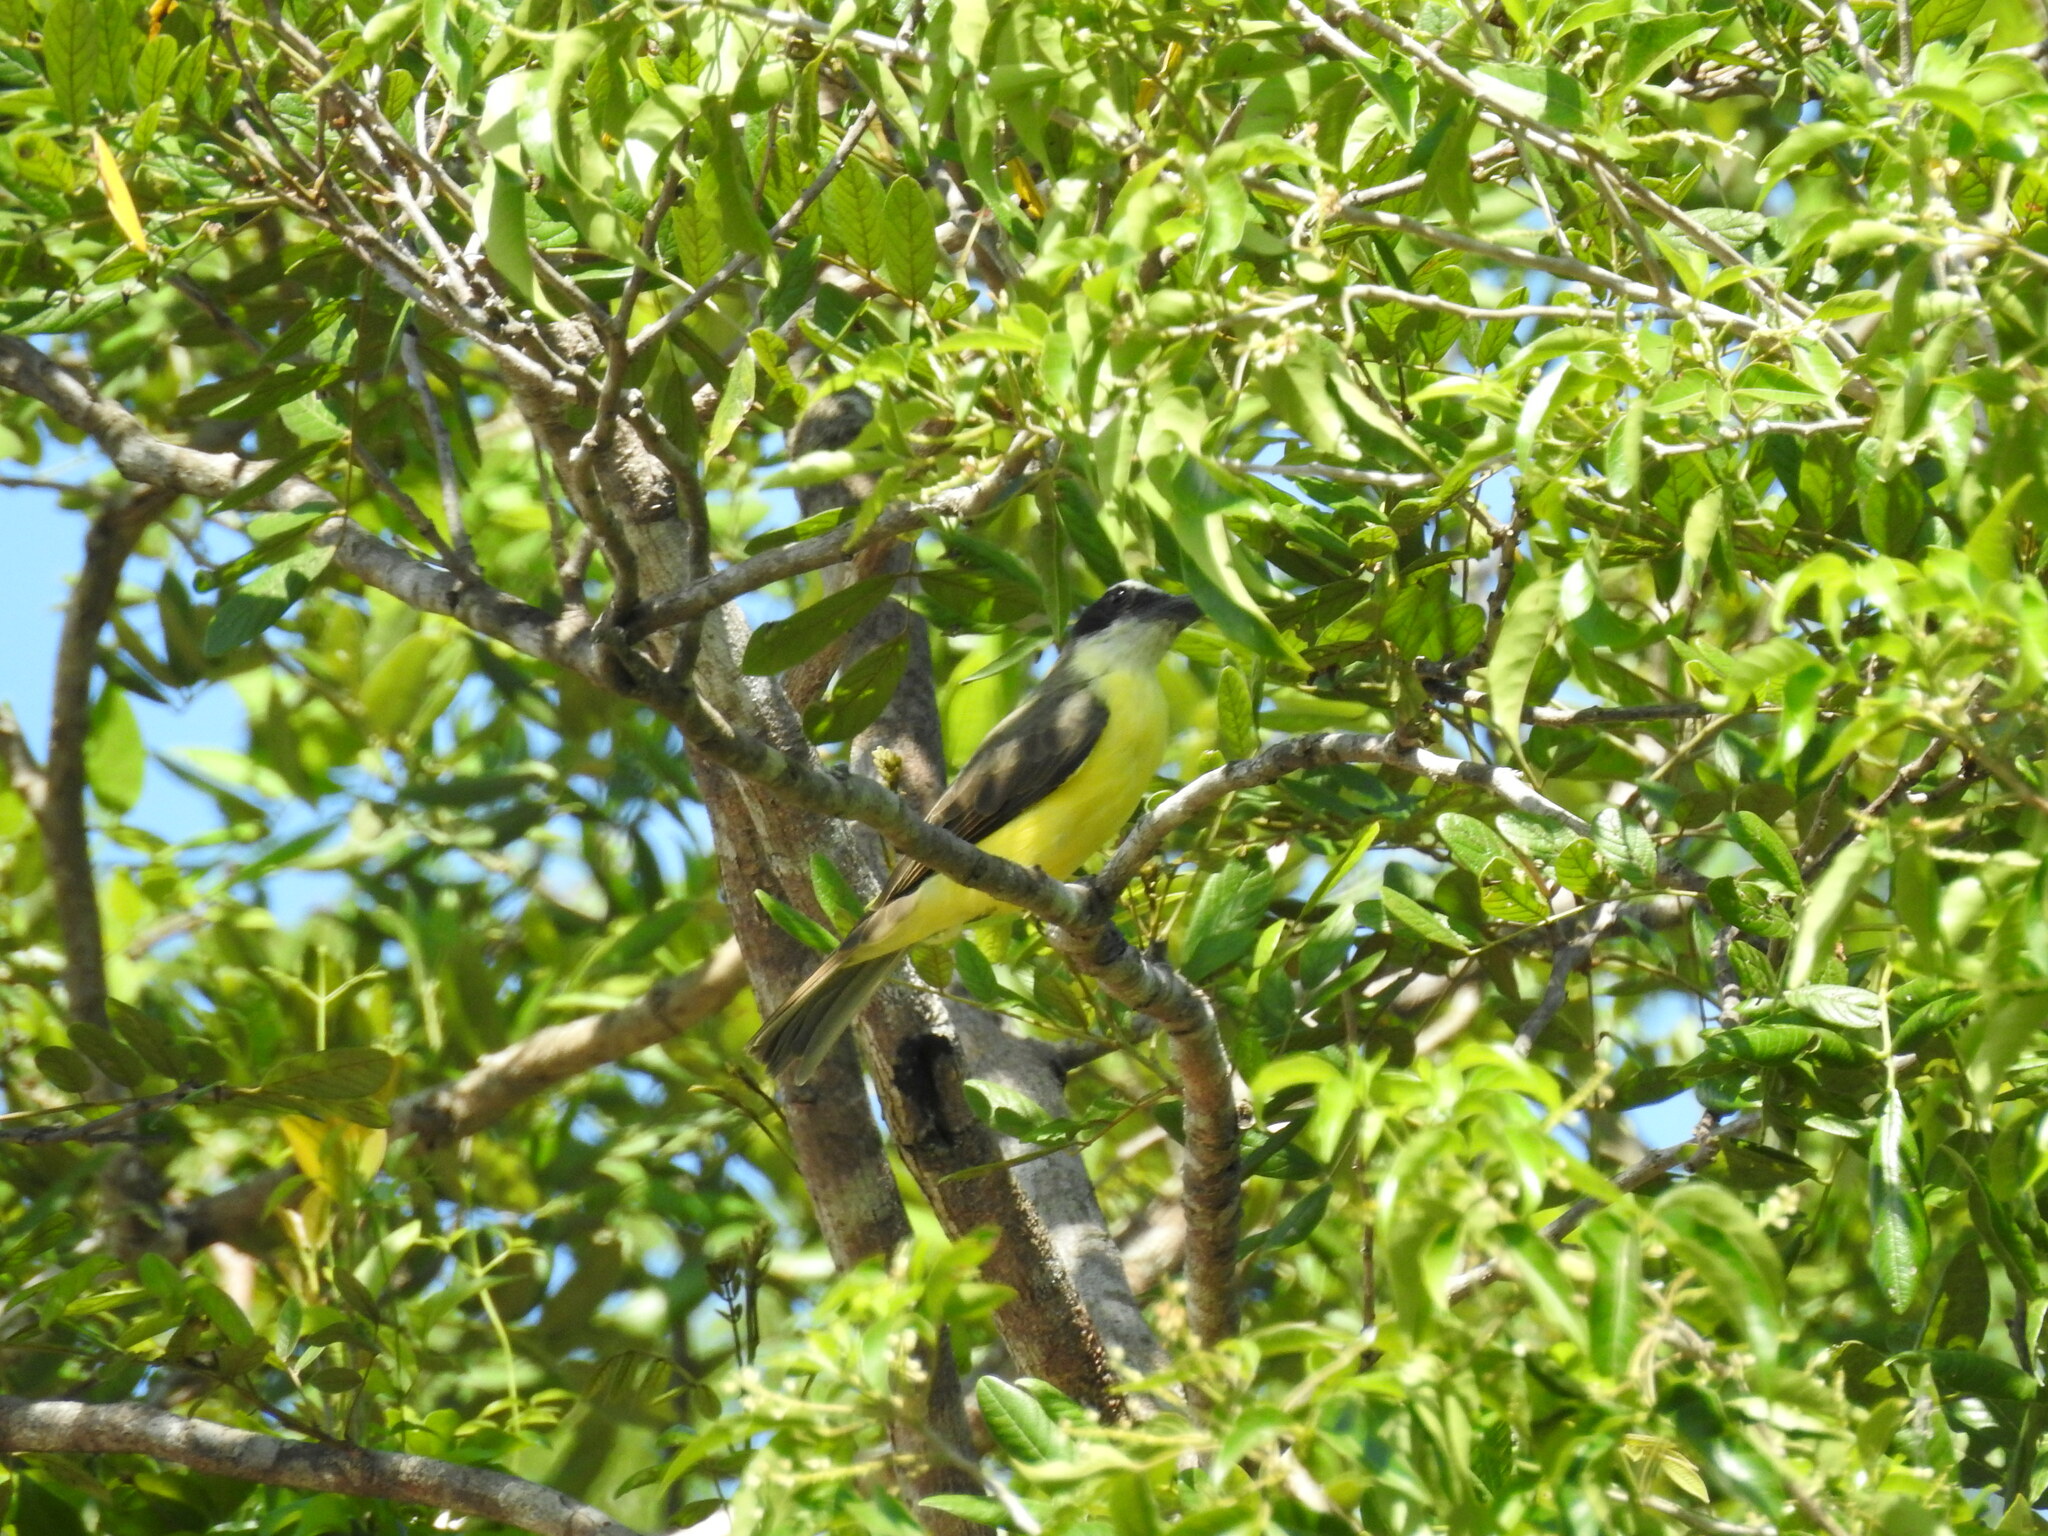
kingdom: Animalia
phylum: Chordata
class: Aves
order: Passeriformes
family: Tyrannidae
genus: Megarynchus
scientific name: Megarynchus pitangua
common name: Boat-billed flycatcher
